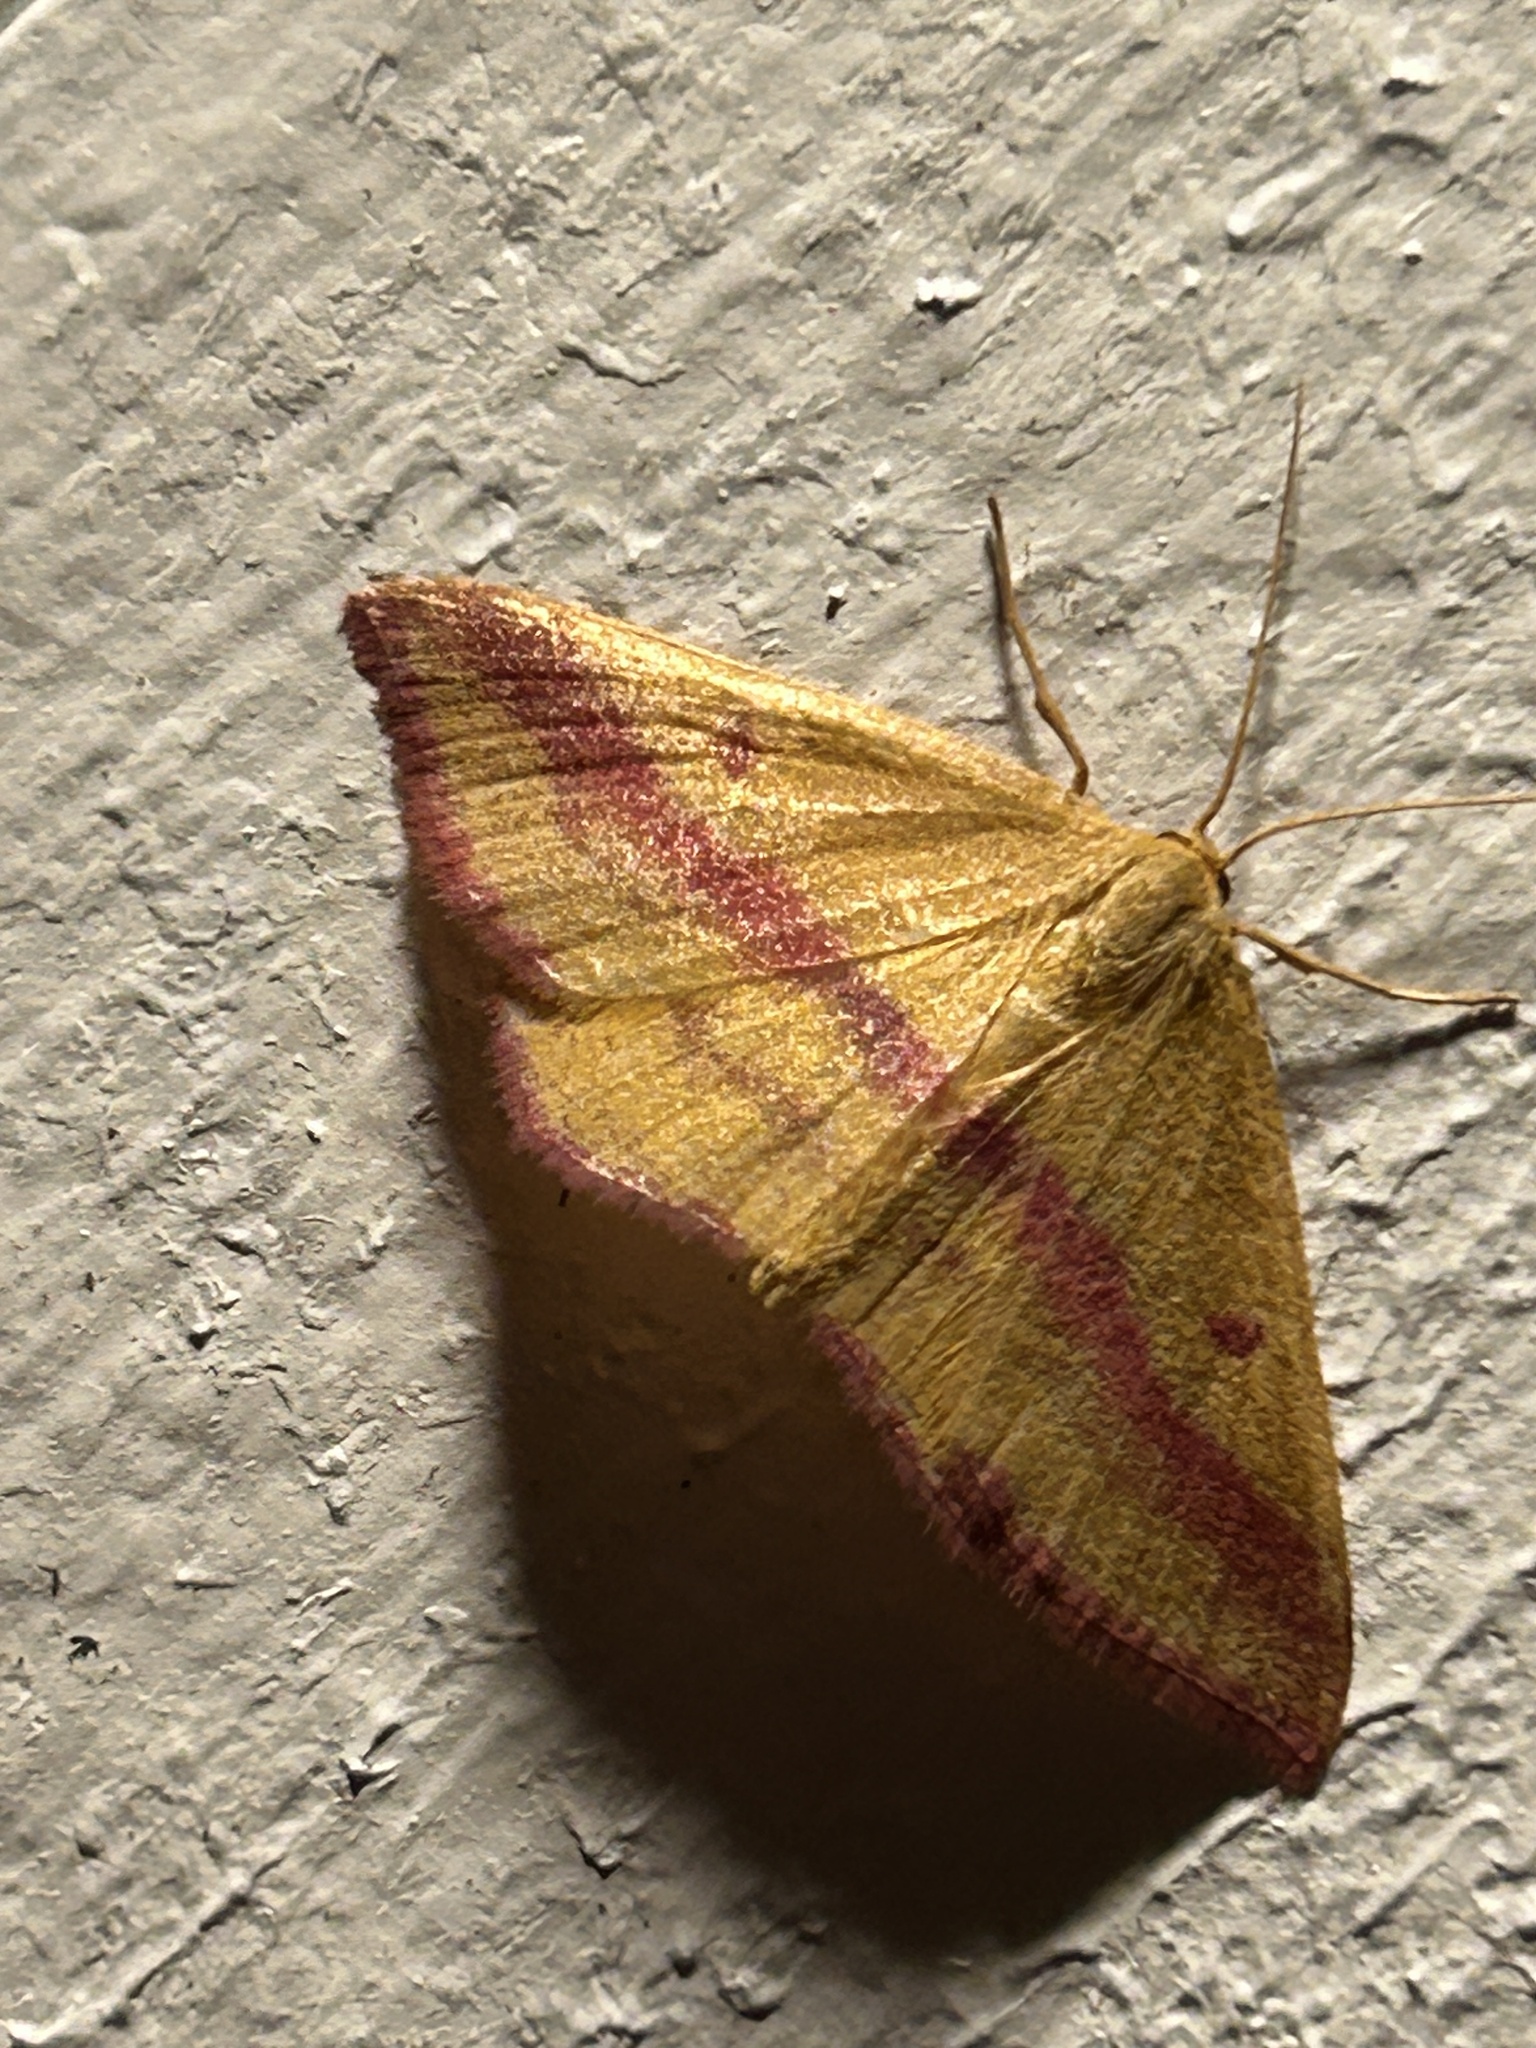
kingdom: Animalia
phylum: Arthropoda
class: Insecta
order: Lepidoptera
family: Geometridae
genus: Haematopis
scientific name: Haematopis grataria
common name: Chickweed geometer
